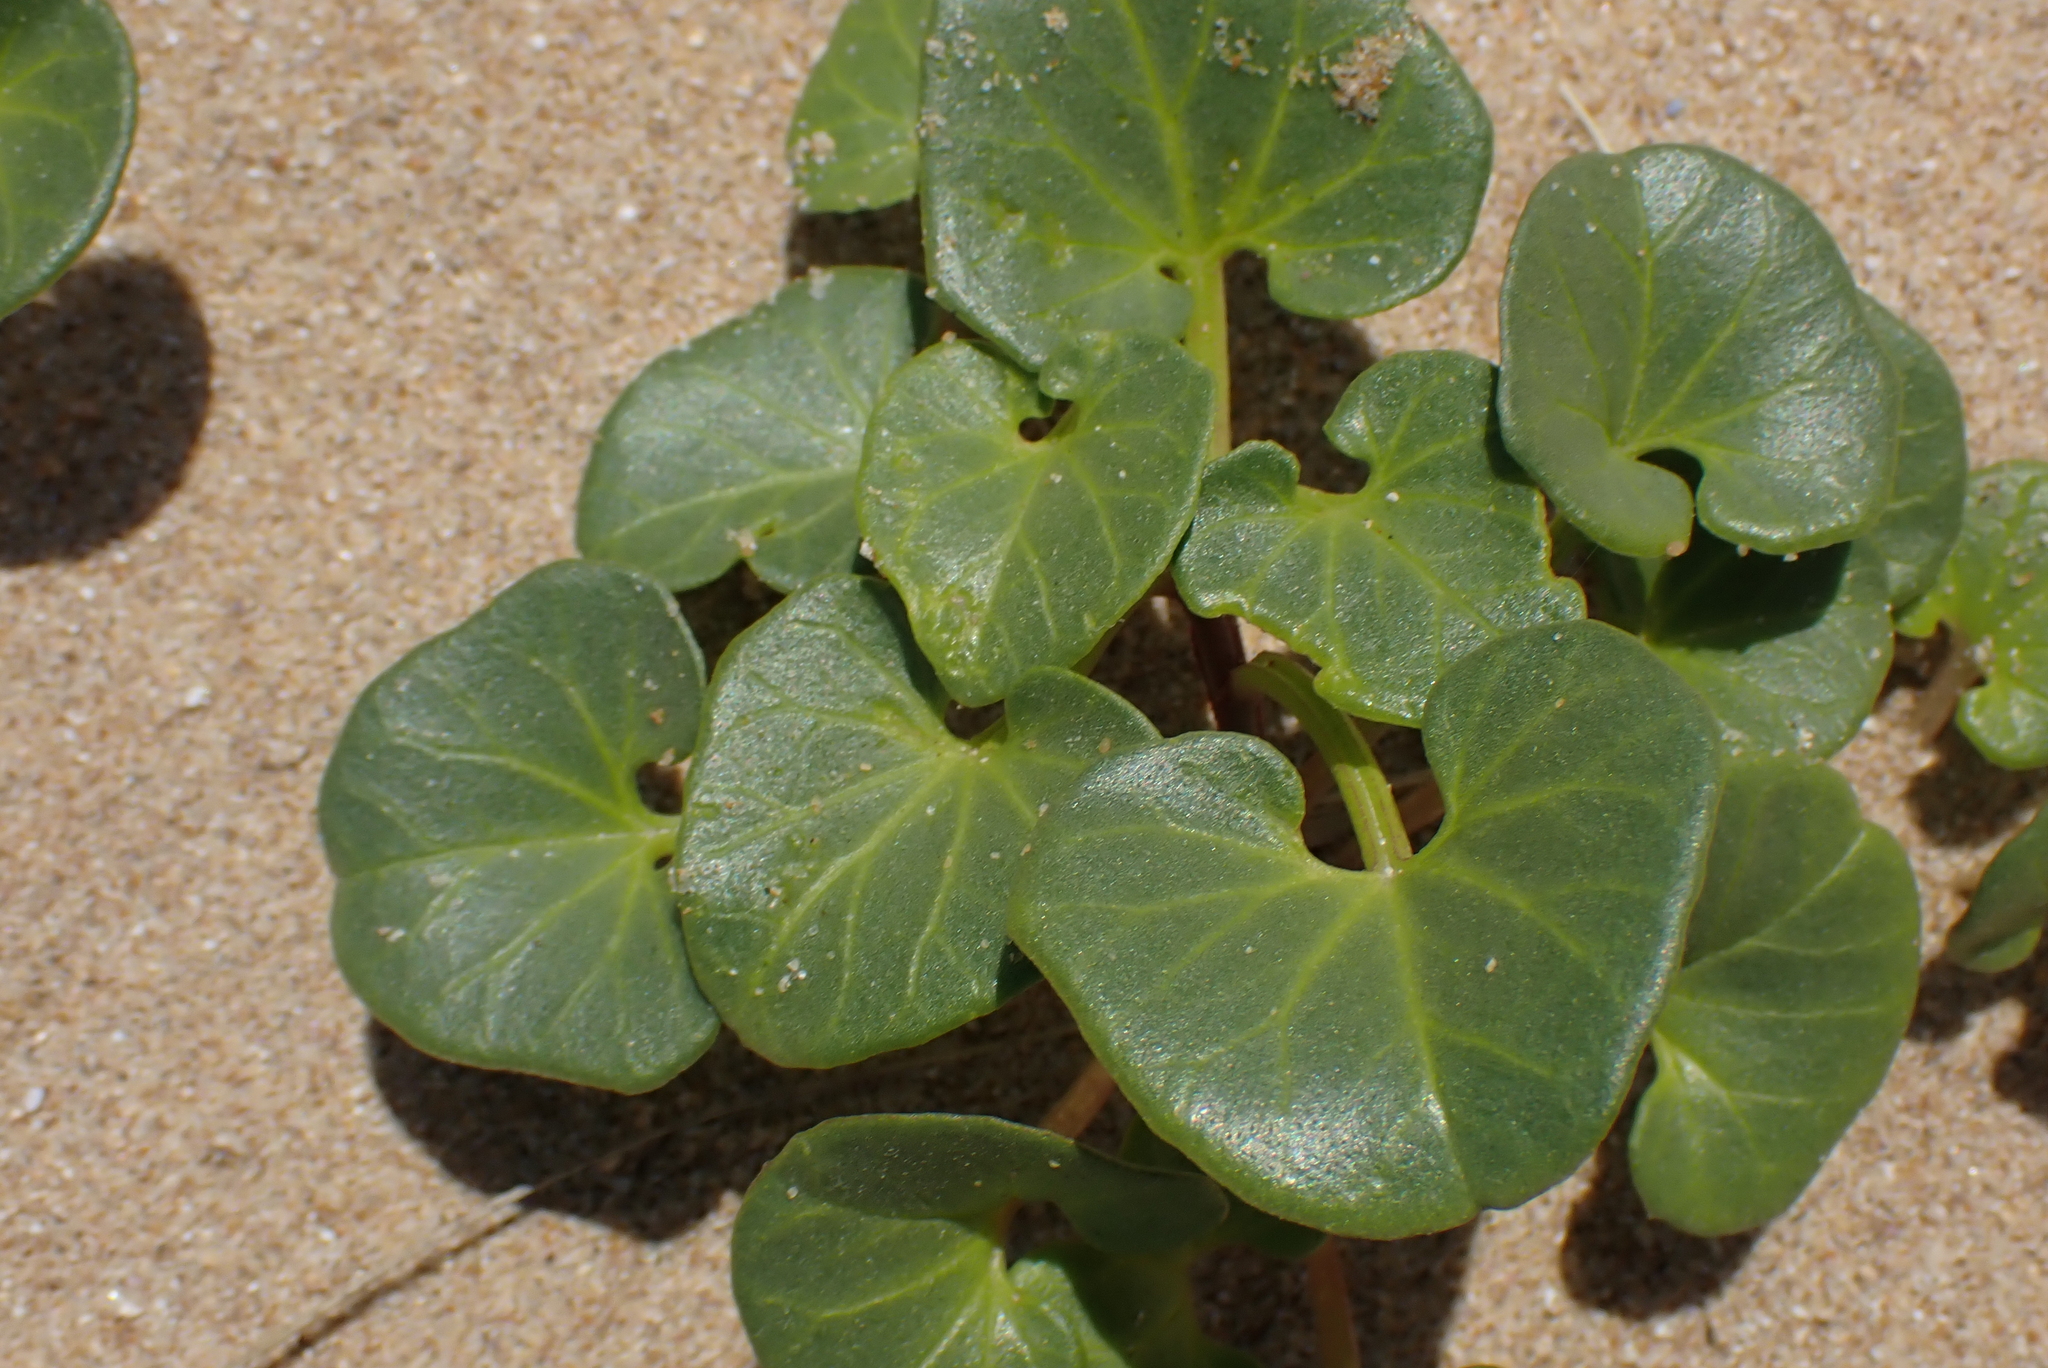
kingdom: Plantae
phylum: Tracheophyta
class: Magnoliopsida
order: Solanales
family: Convolvulaceae
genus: Calystegia
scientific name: Calystegia soldanella
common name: Sea bindweed
